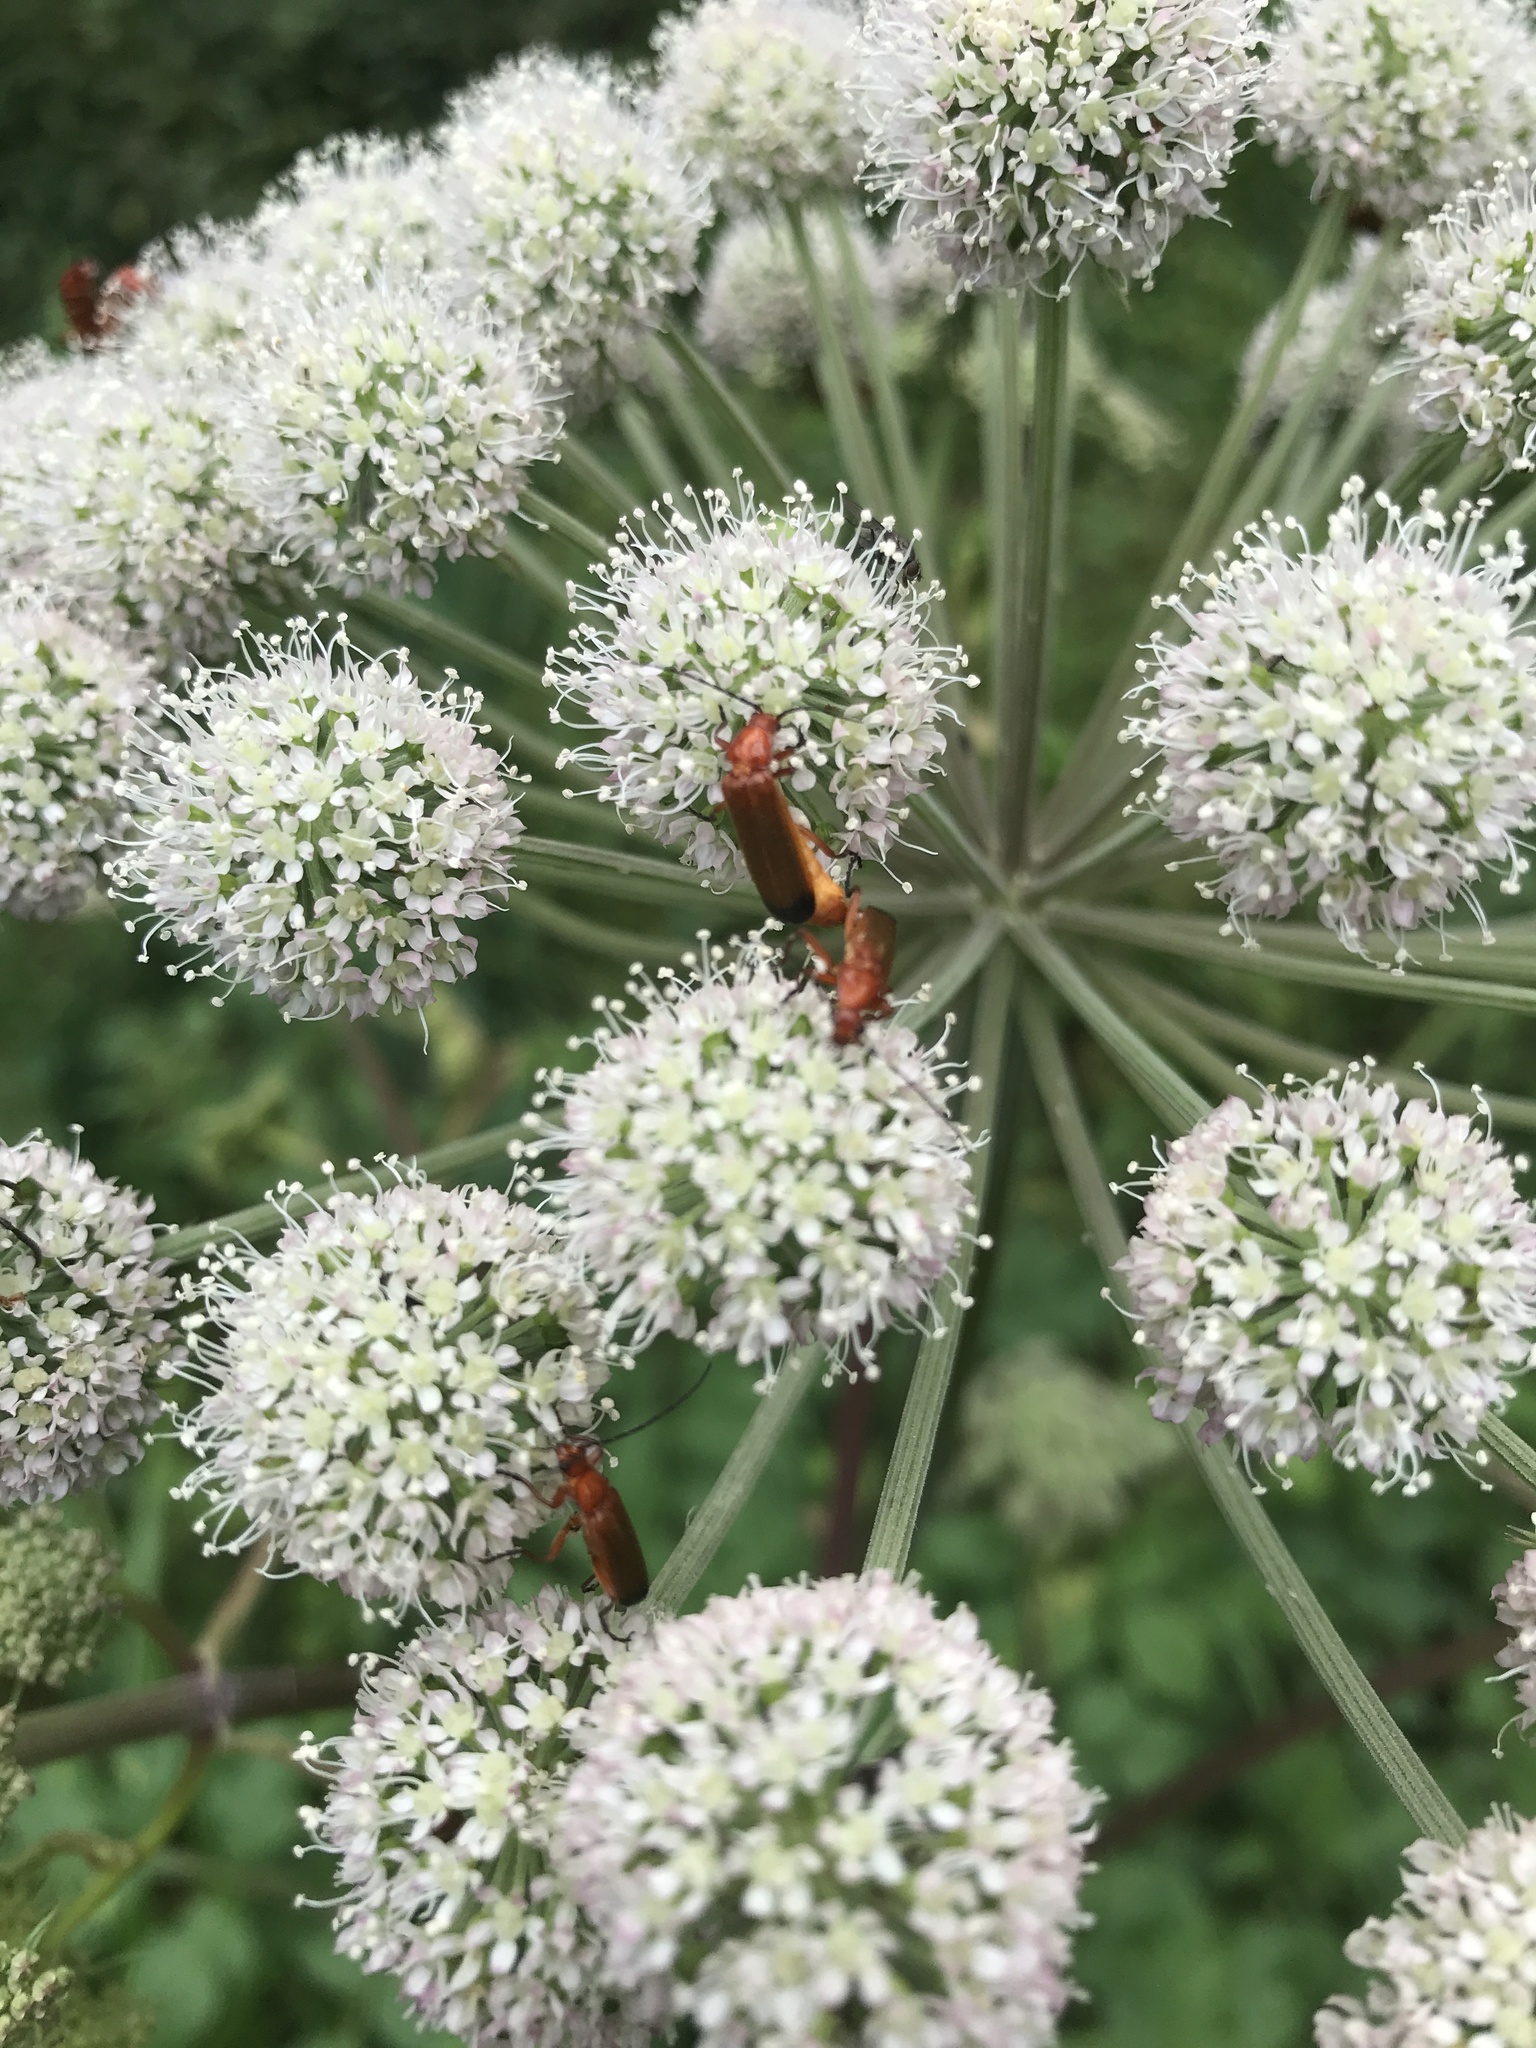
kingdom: Animalia
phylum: Arthropoda
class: Insecta
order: Coleoptera
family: Cantharidae
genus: Rhagonycha
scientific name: Rhagonycha fulva
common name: Common red soldier beetle
